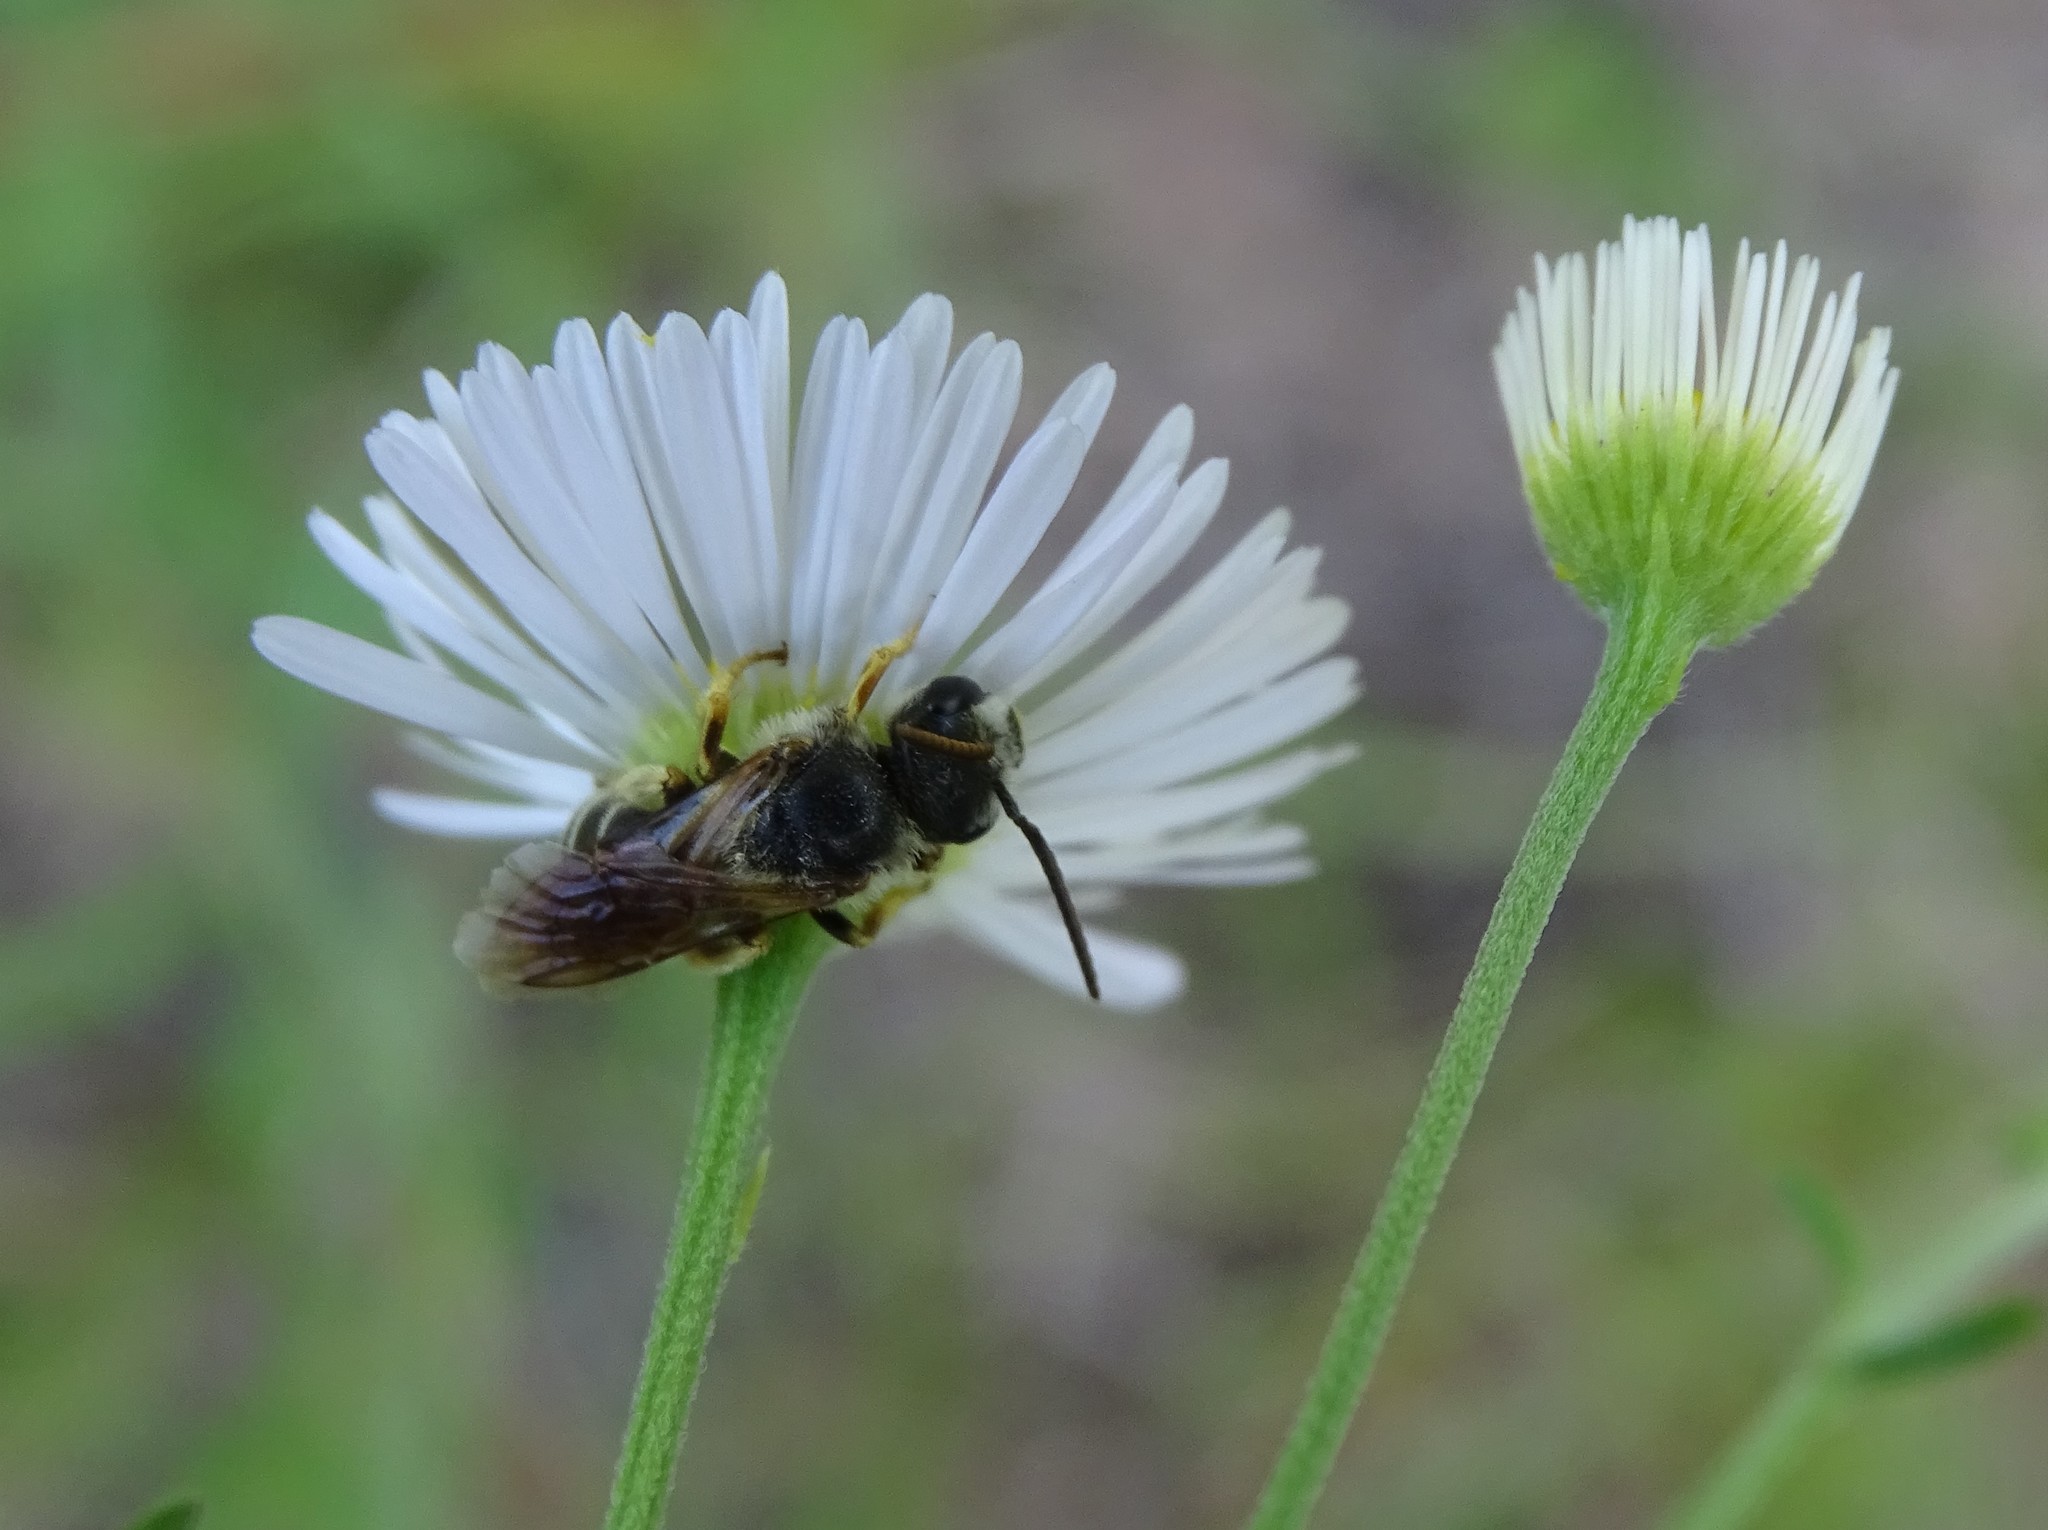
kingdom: Animalia
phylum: Arthropoda
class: Insecta
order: Hymenoptera
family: Halictidae
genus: Halictus
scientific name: Halictus poeyi
